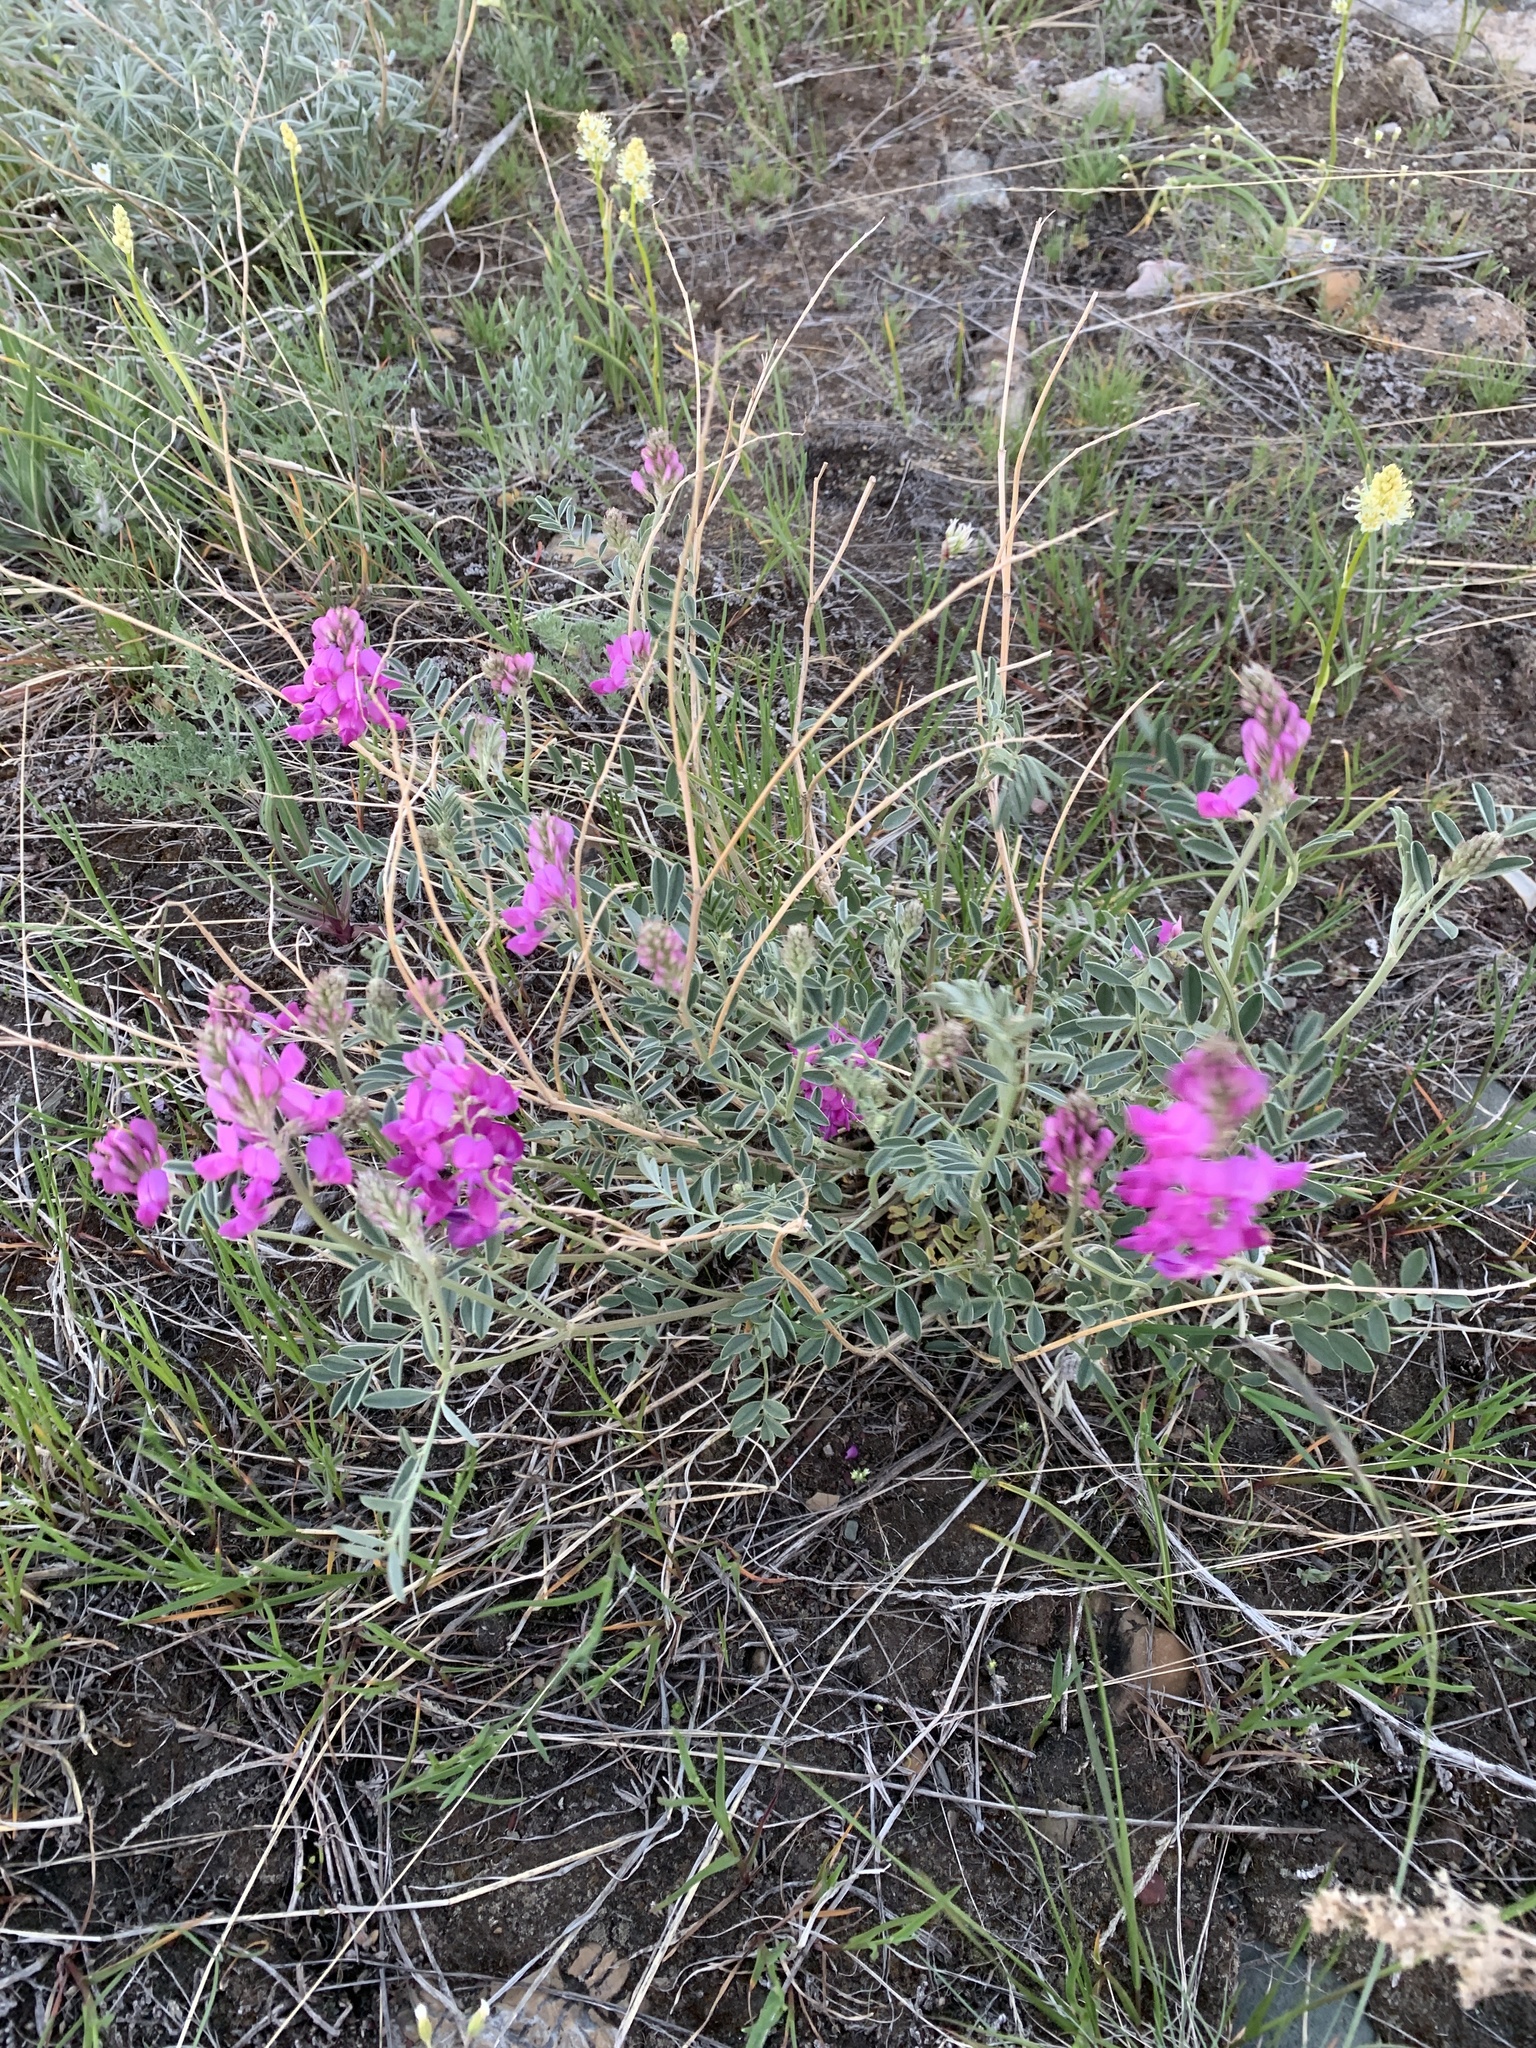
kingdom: Plantae
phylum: Tracheophyta
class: Magnoliopsida
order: Fabales
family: Fabaceae
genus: Hedysarum
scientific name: Hedysarum boreale
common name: Northern sweet-vetch
